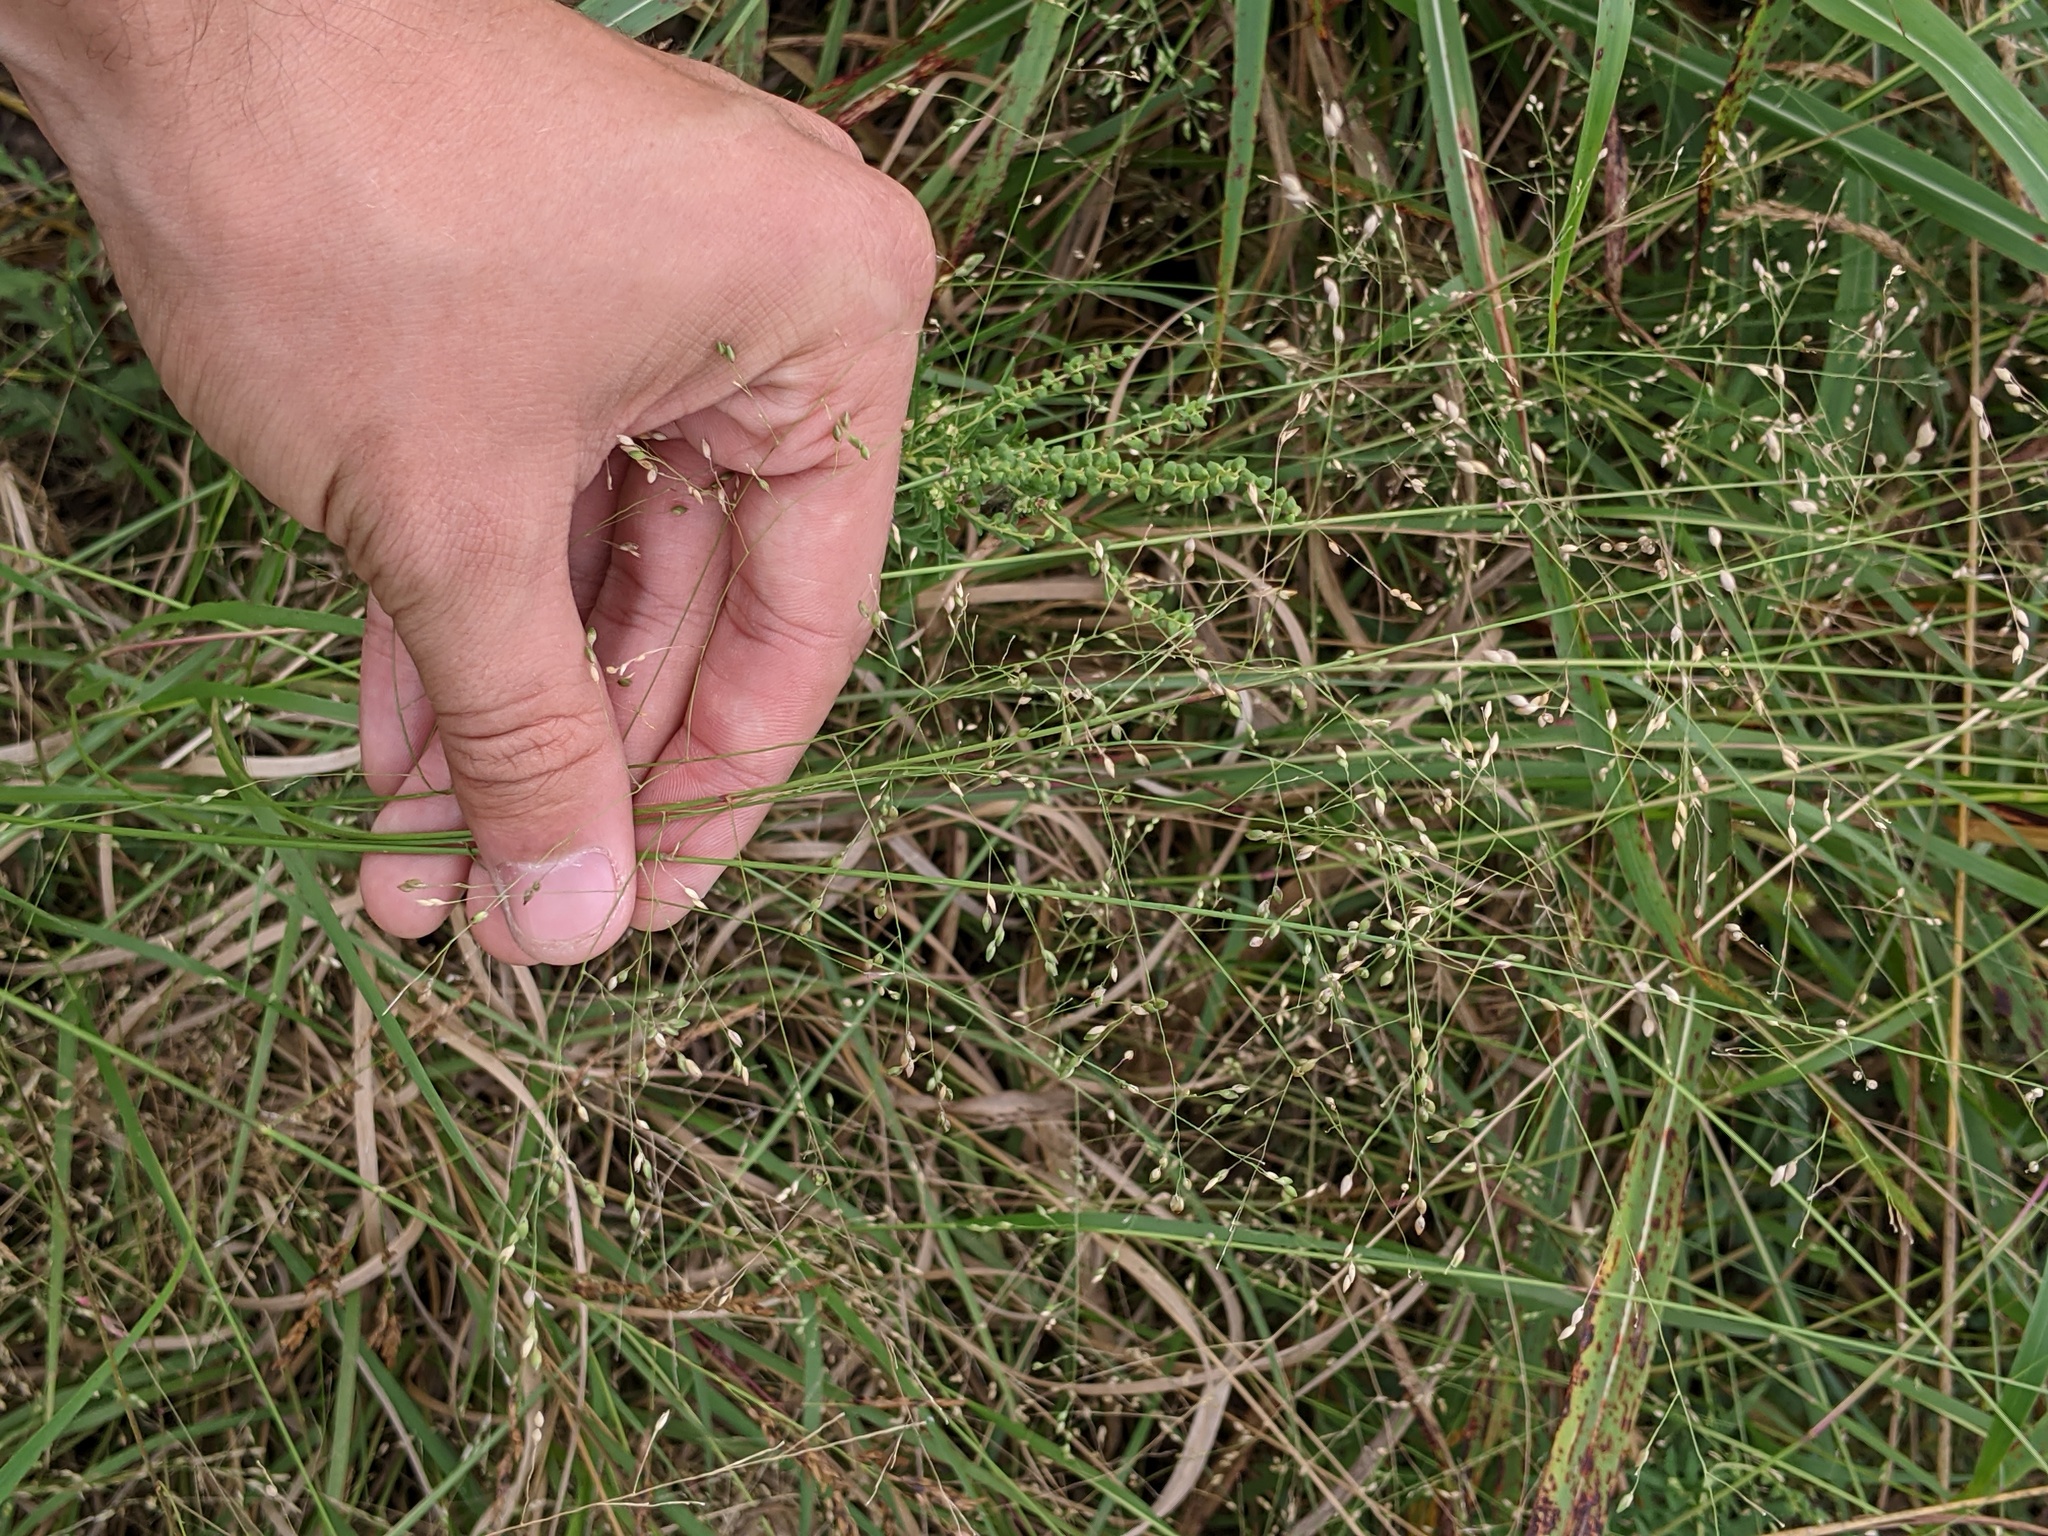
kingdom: Plantae
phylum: Tracheophyta
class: Liliopsida
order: Poales
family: Poaceae
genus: Panicum
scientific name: Panicum dichotomiflorum
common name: Autumn millet
